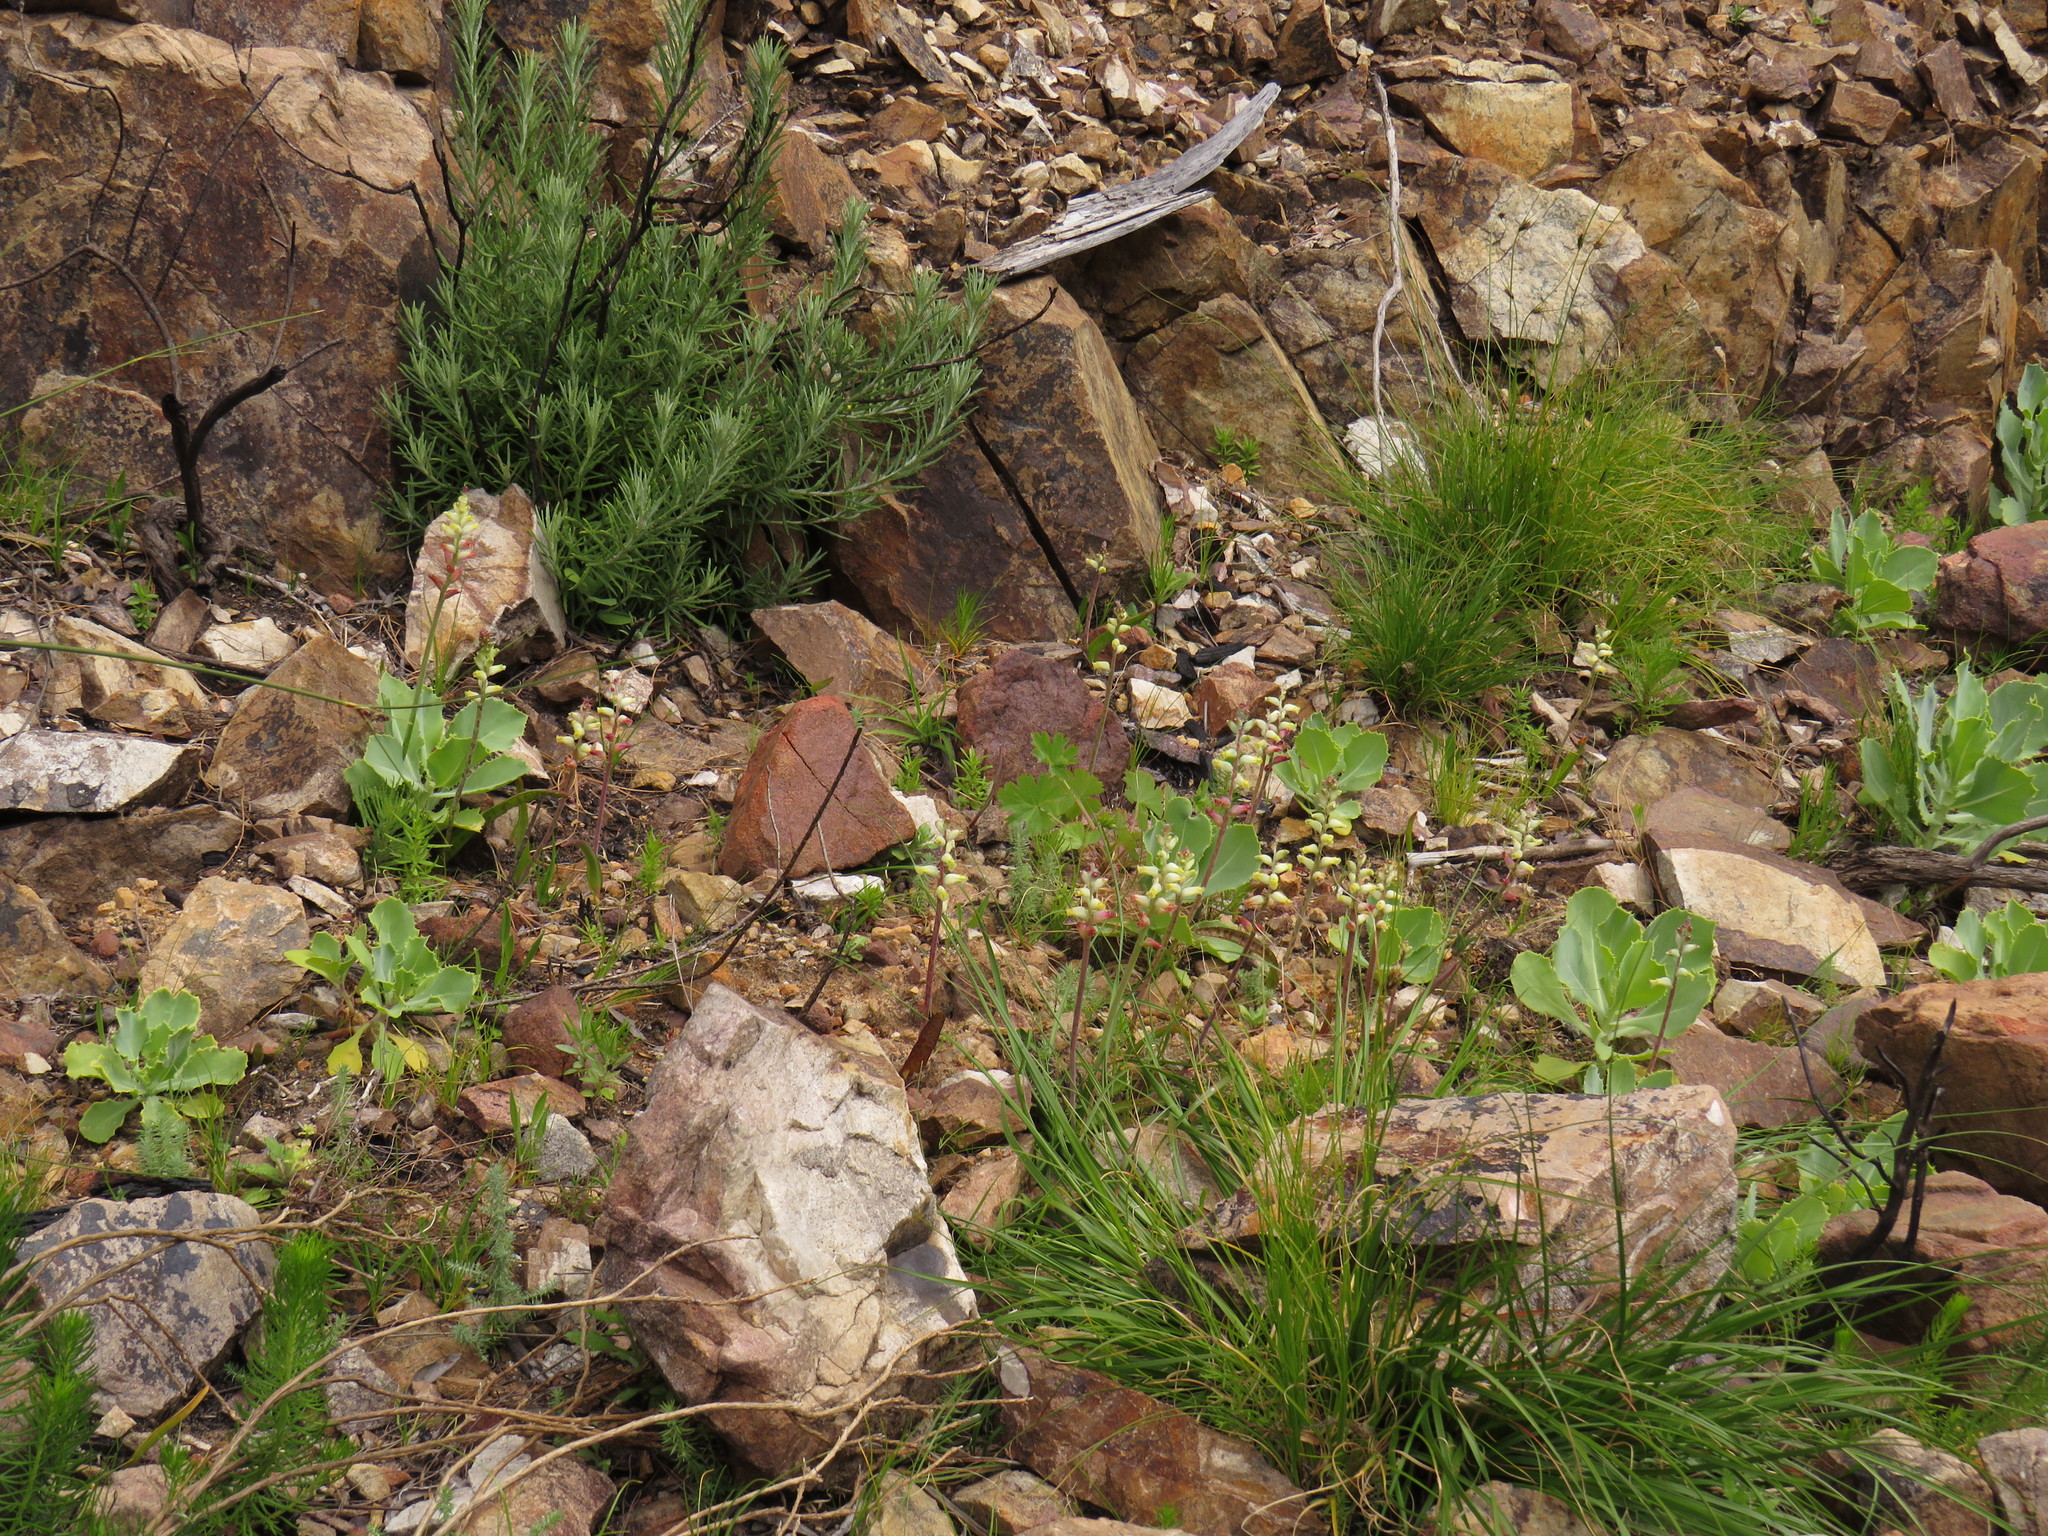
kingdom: Plantae
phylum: Tracheophyta
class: Liliopsida
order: Asparagales
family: Asparagaceae
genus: Lachenalia
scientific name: Lachenalia cernua
